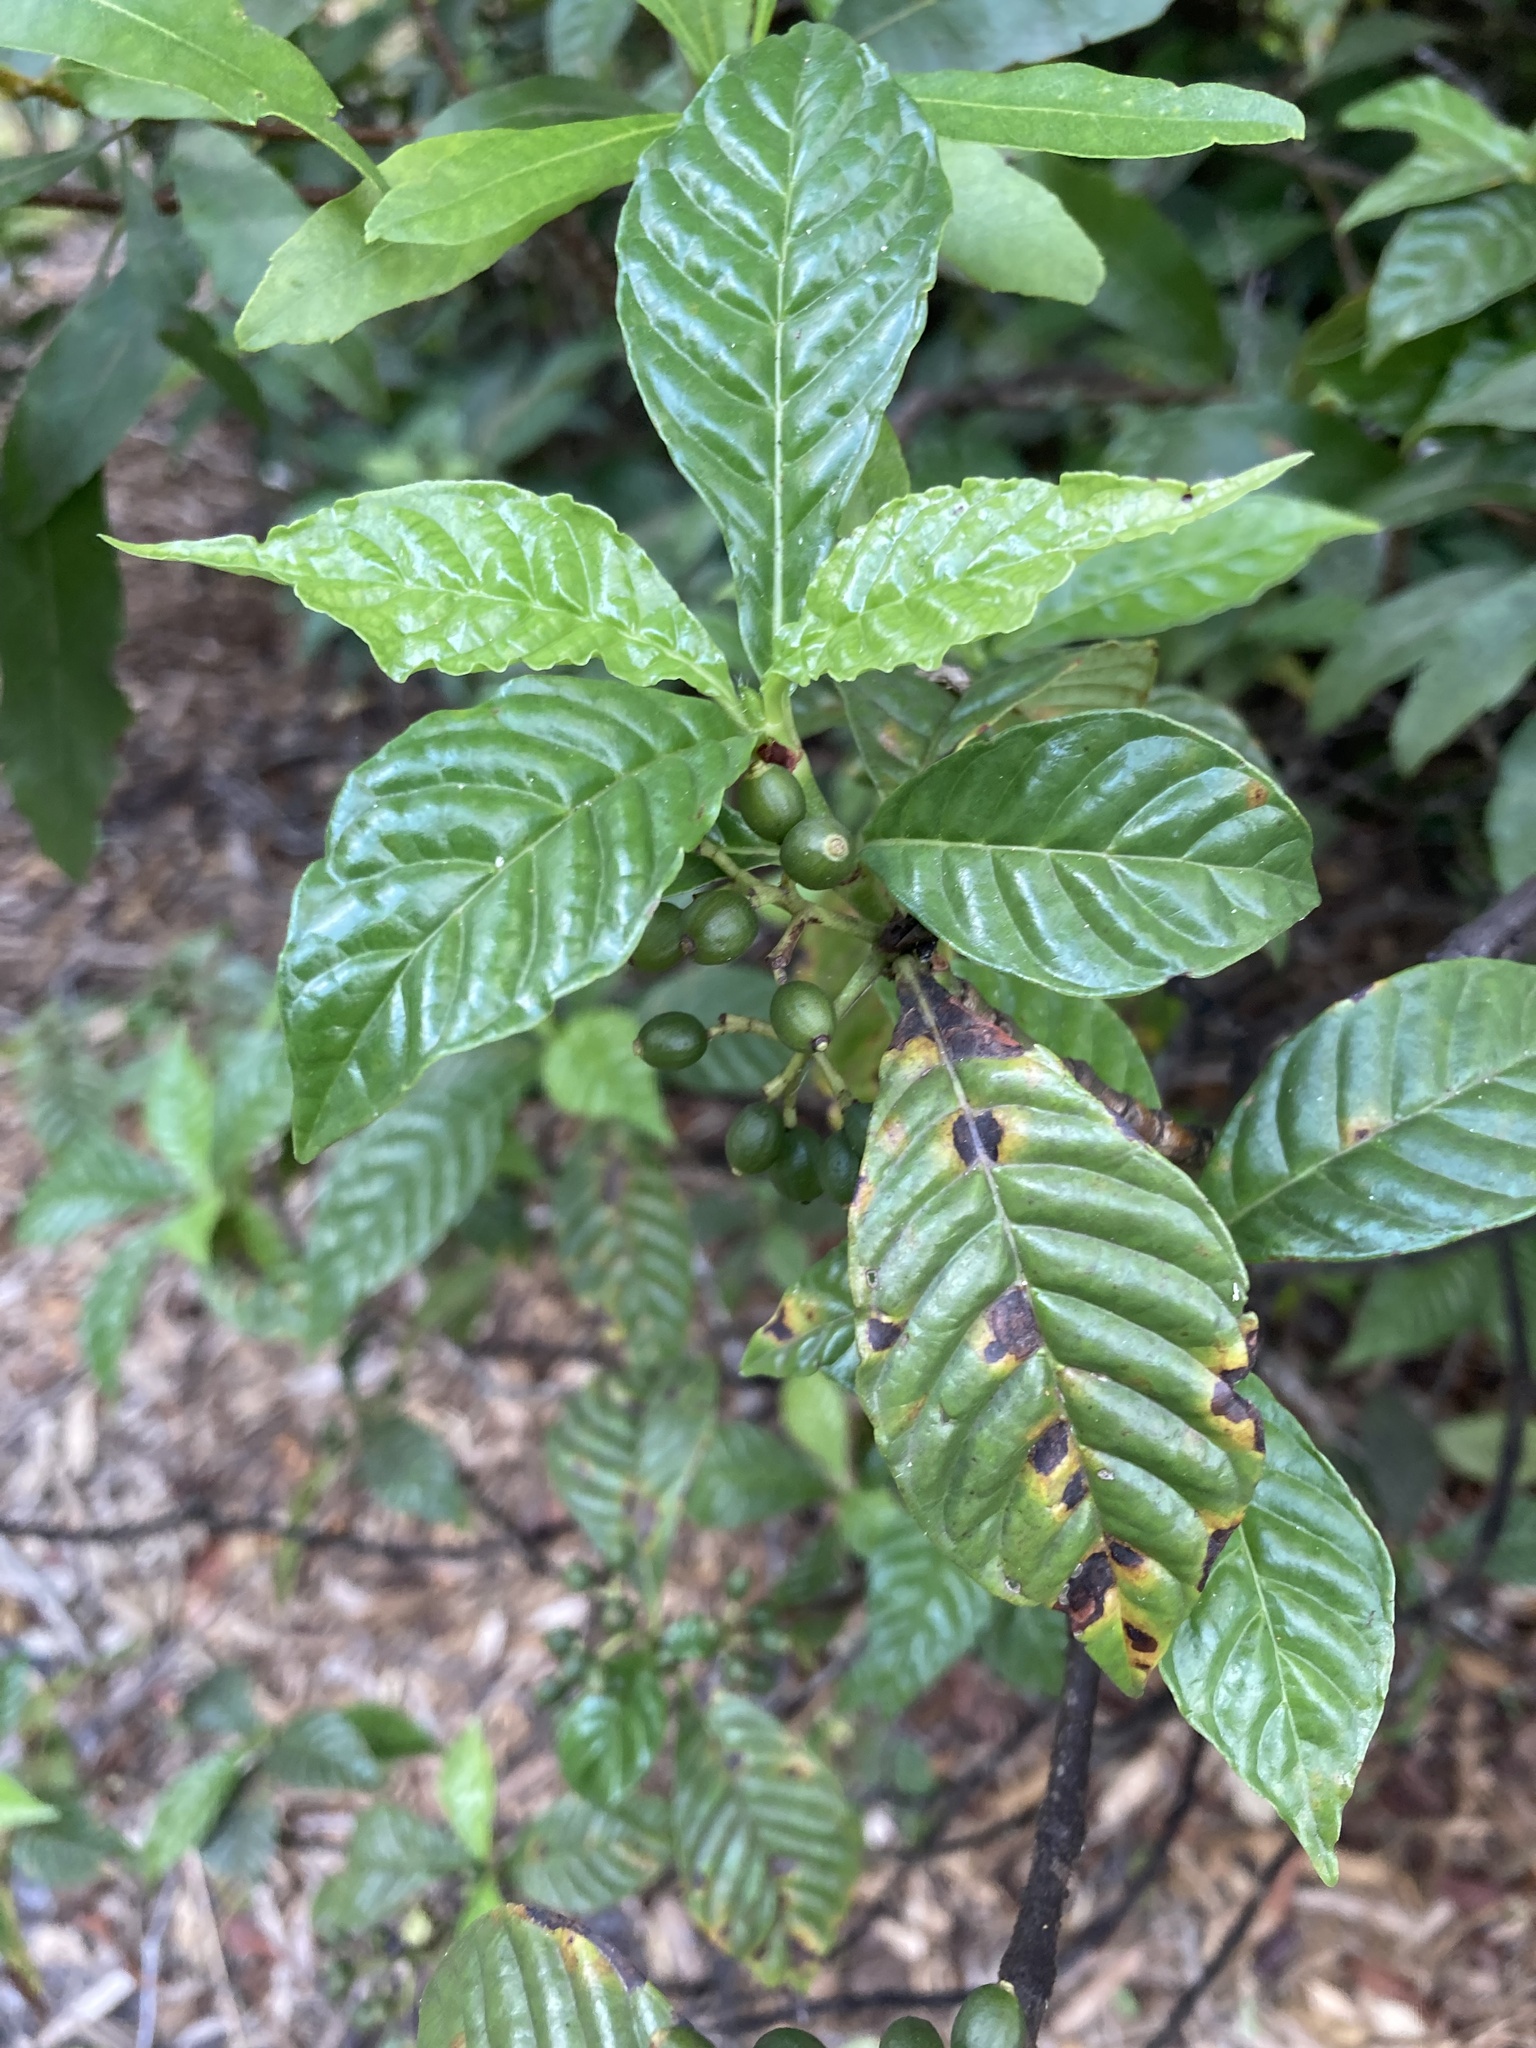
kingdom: Plantae
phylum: Tracheophyta
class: Magnoliopsida
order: Gentianales
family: Rubiaceae
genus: Psychotria
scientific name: Psychotria nervosa
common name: Bastard cankerberry
